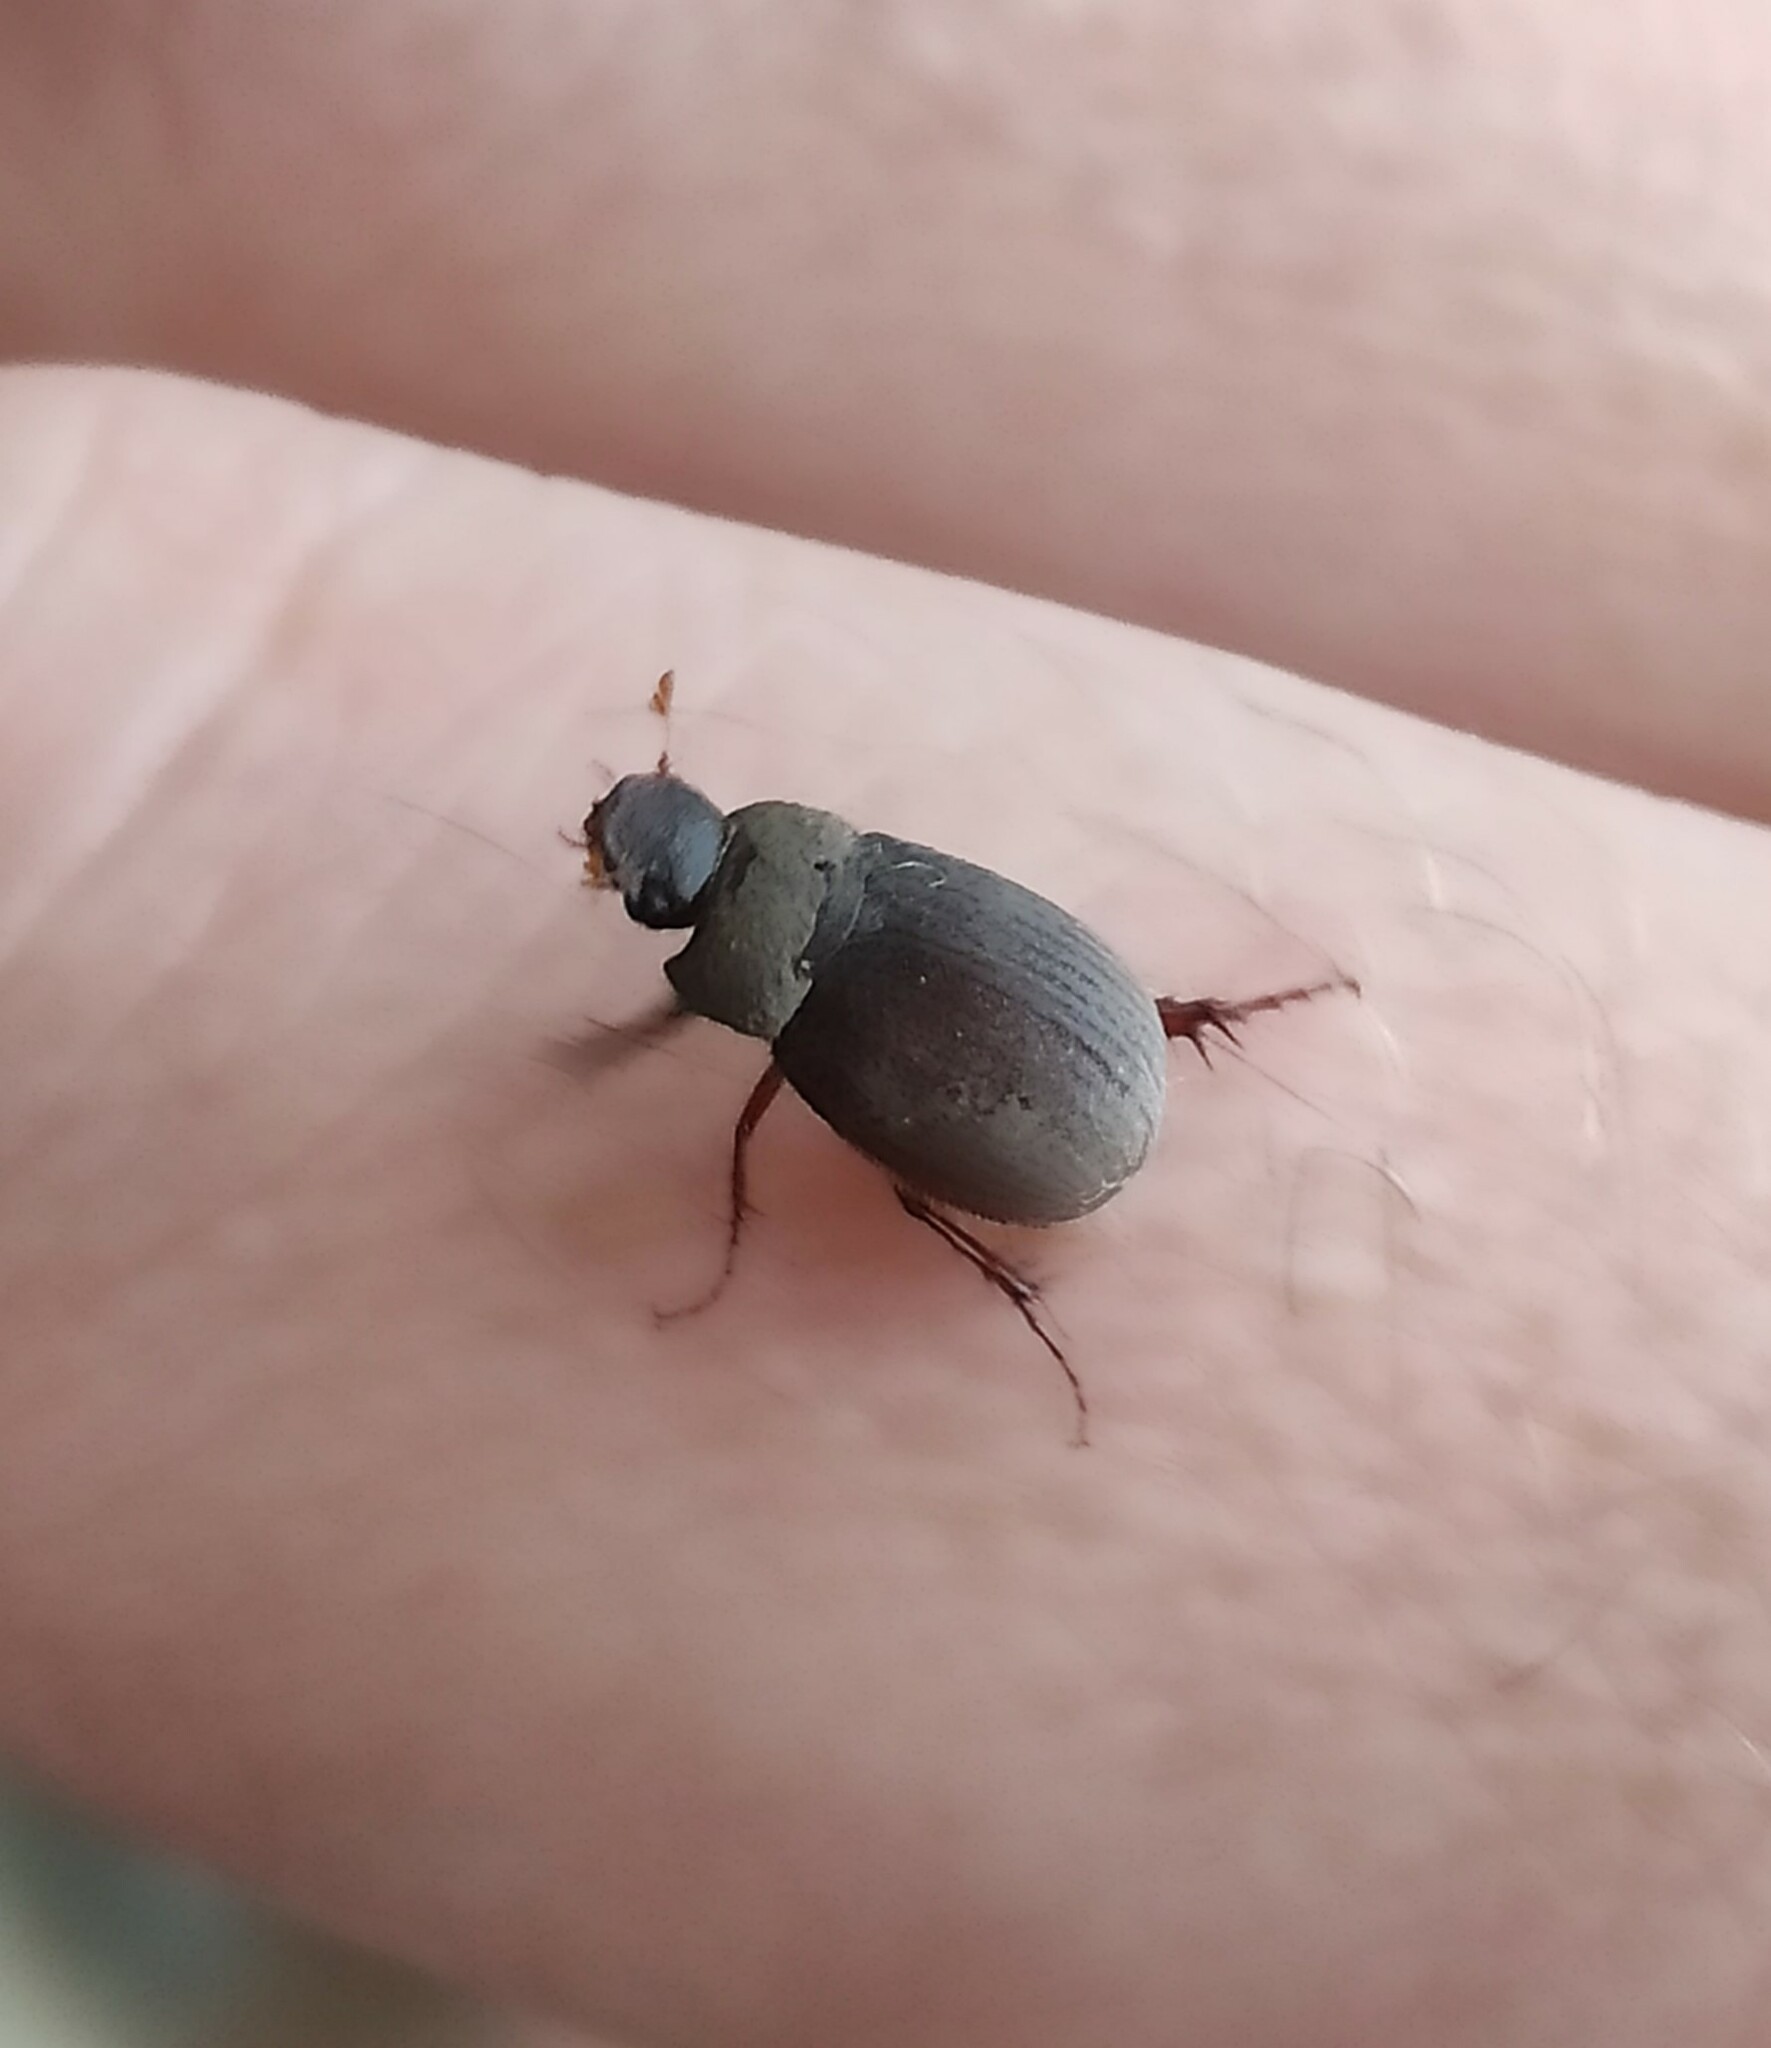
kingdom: Animalia
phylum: Arthropoda
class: Insecta
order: Coleoptera
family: Scarabaeidae
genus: Maladera
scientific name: Maladera holosericea
